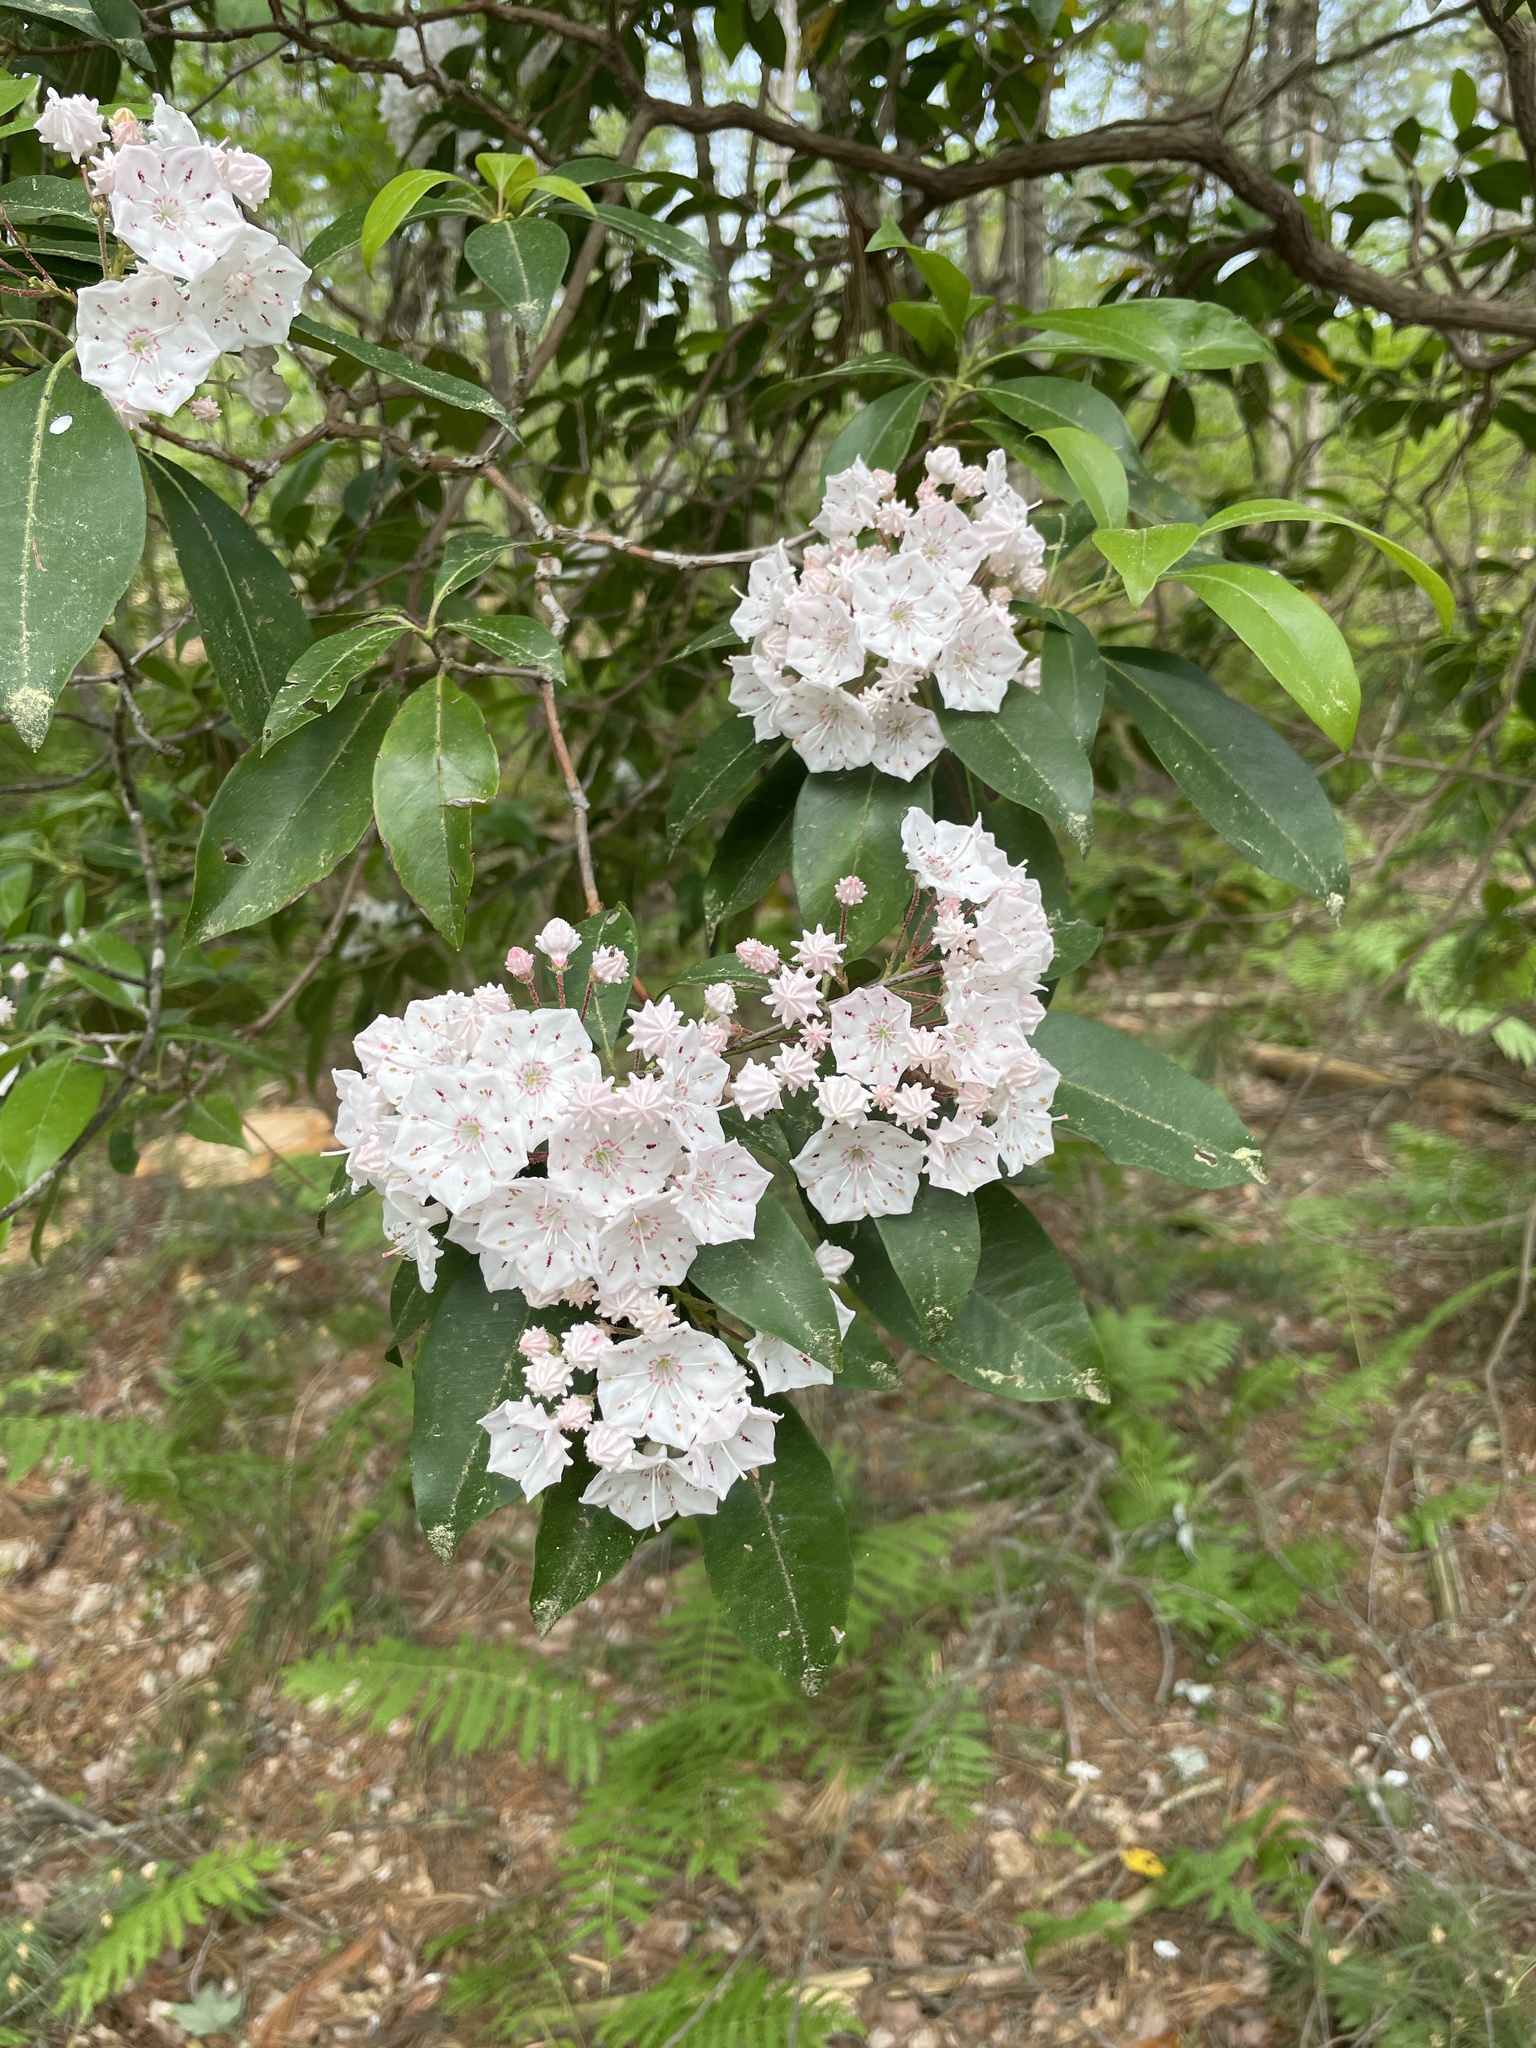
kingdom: Plantae
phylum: Tracheophyta
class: Magnoliopsida
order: Ericales
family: Ericaceae
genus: Kalmia
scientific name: Kalmia latifolia
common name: Mountain-laurel
